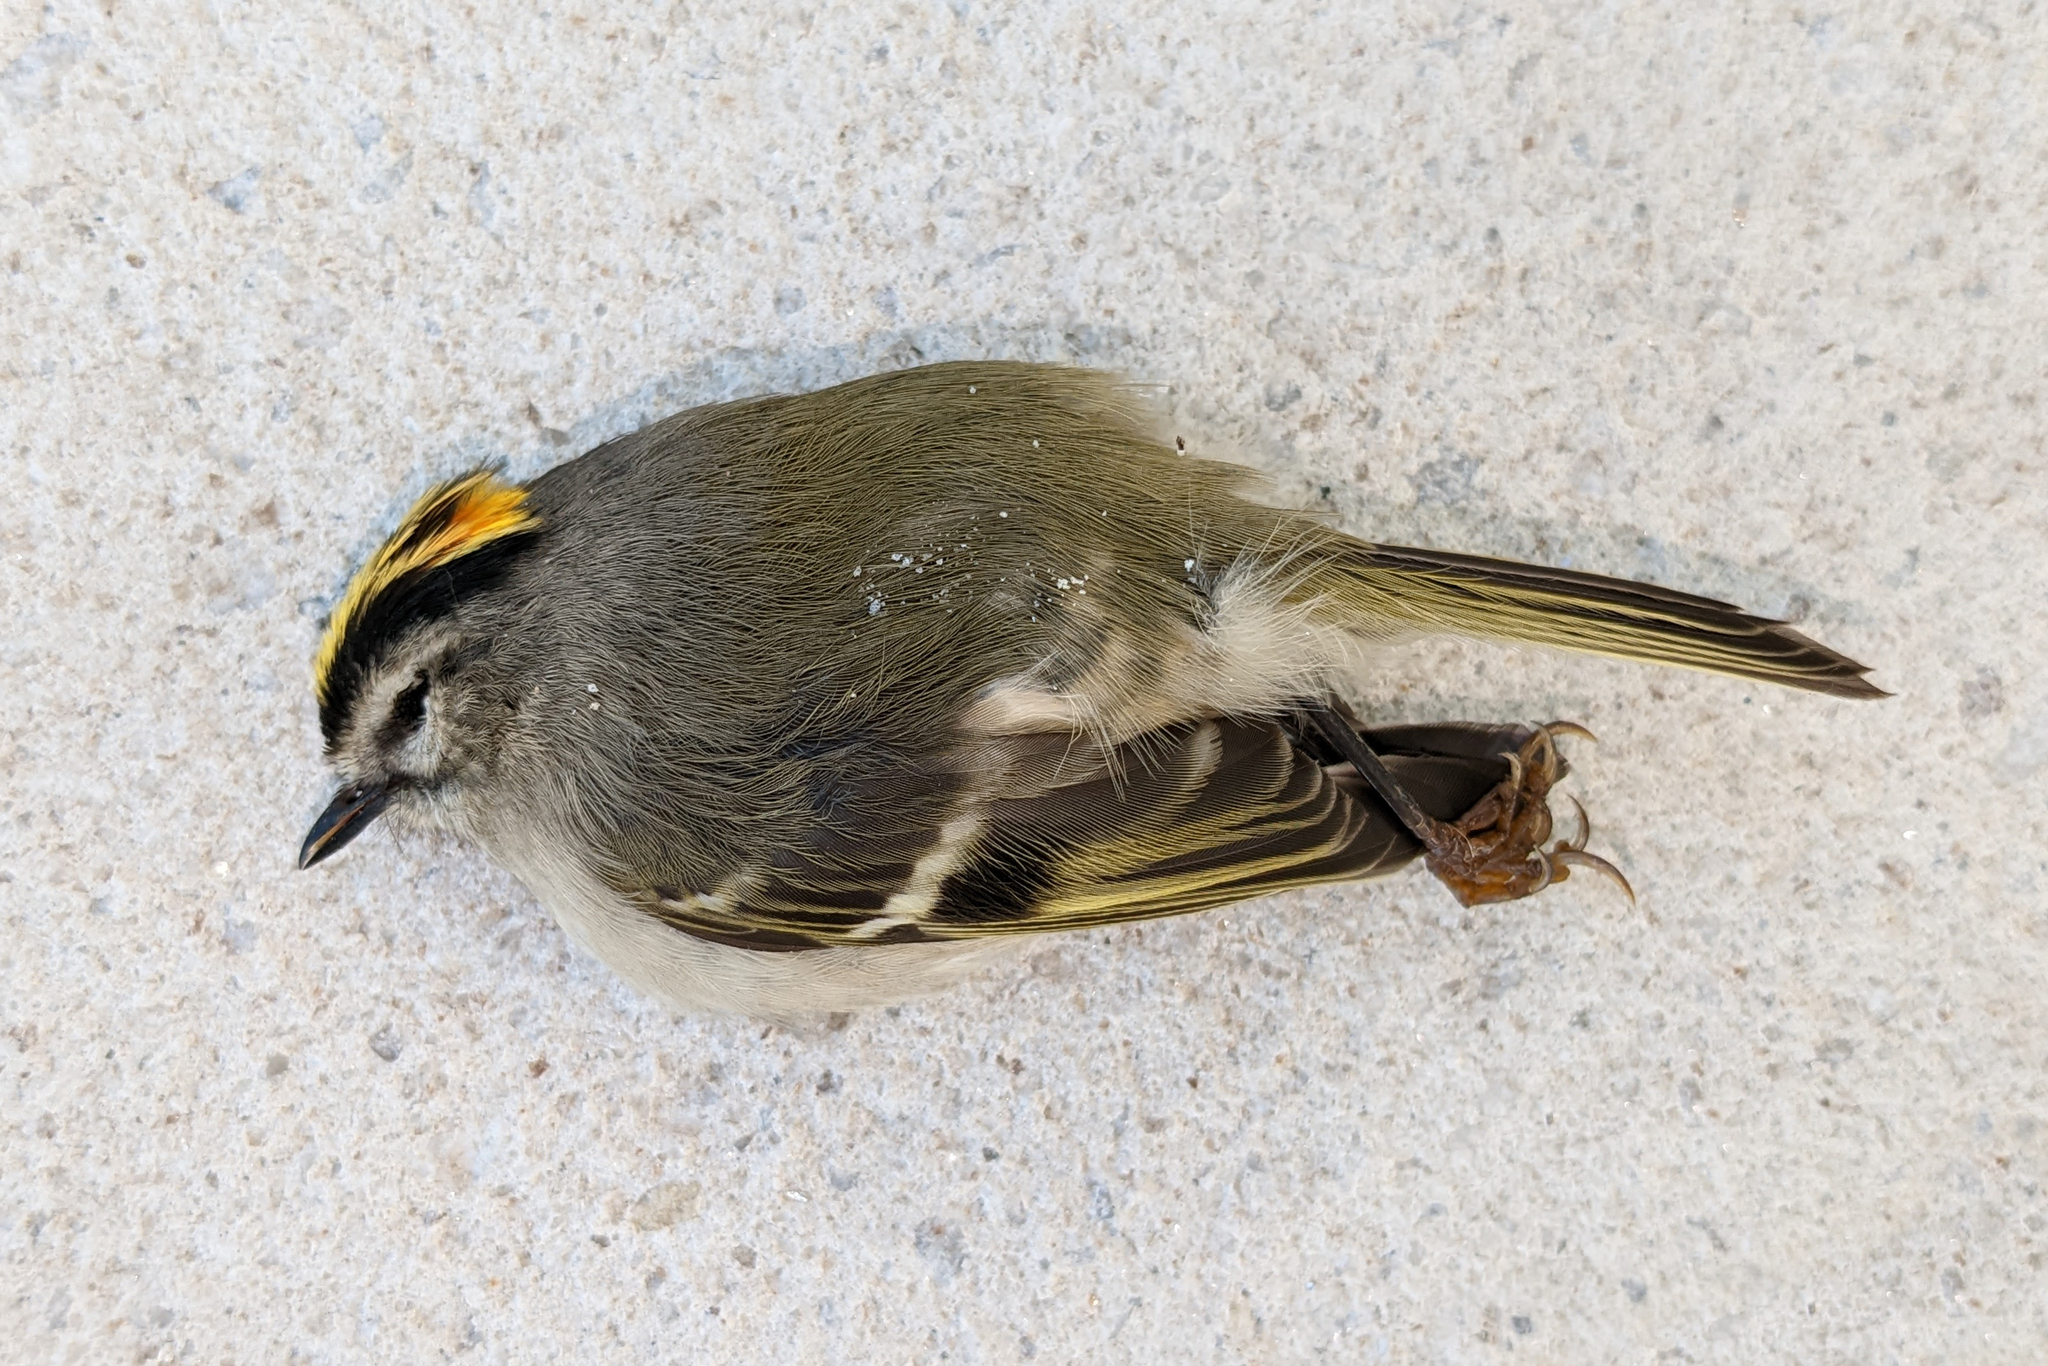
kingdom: Animalia
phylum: Chordata
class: Aves
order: Passeriformes
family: Regulidae
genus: Regulus
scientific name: Regulus satrapa
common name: Golden-crowned kinglet
